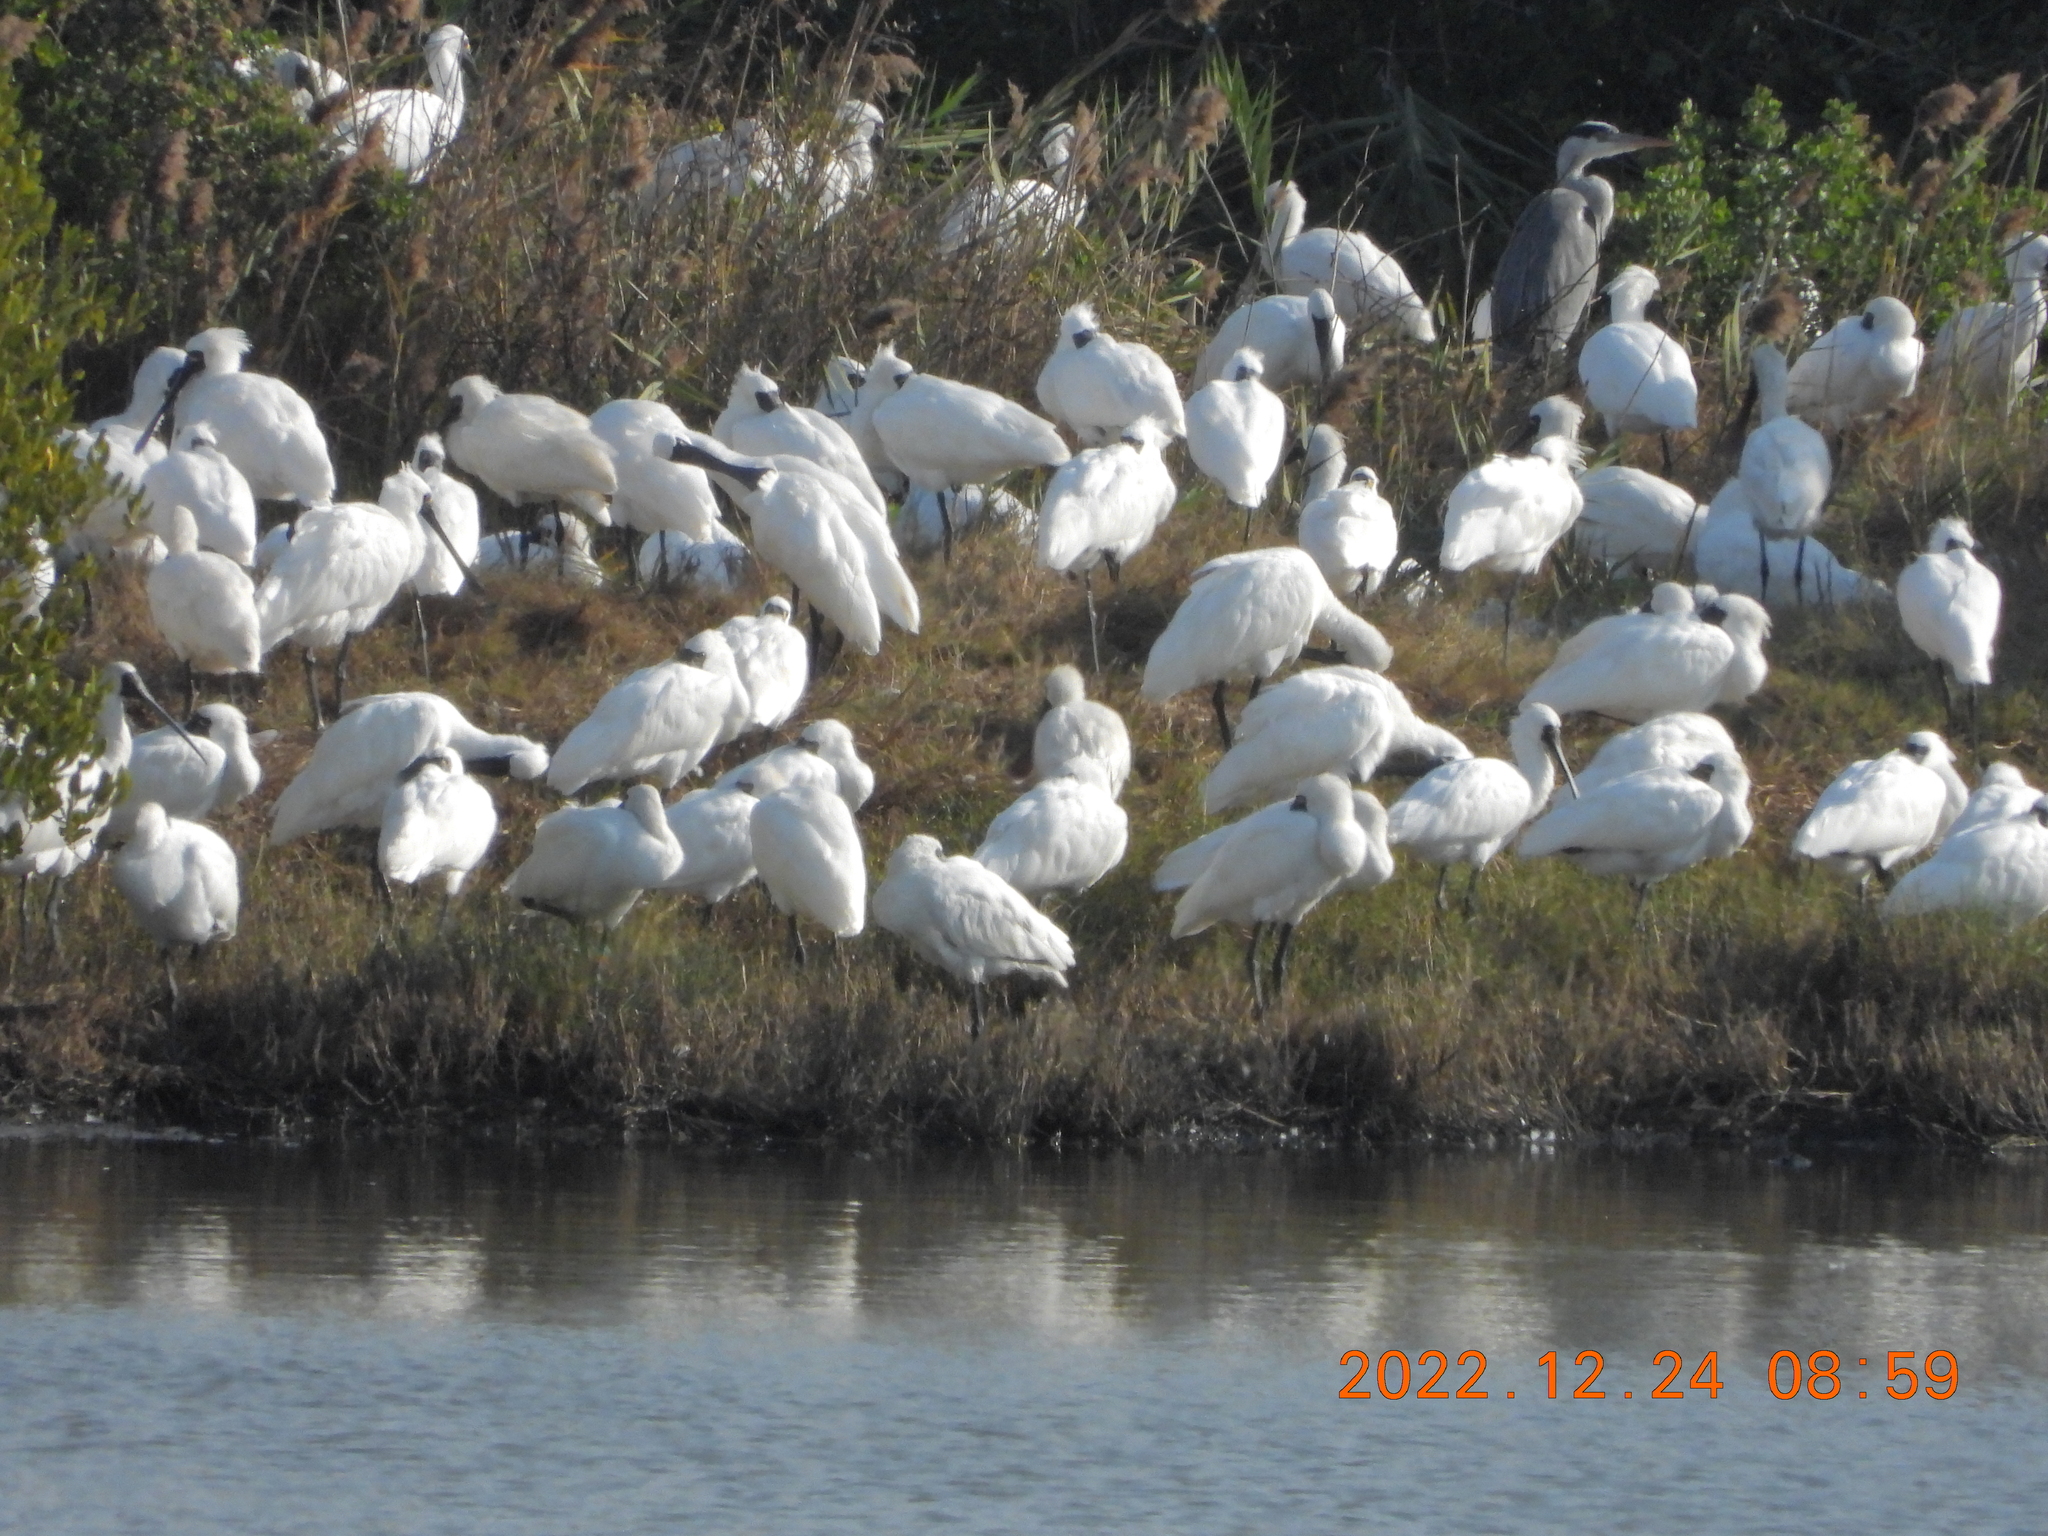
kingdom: Animalia
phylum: Chordata
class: Aves
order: Pelecaniformes
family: Threskiornithidae
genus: Platalea
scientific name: Platalea minor
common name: Black-faced spoonbill
